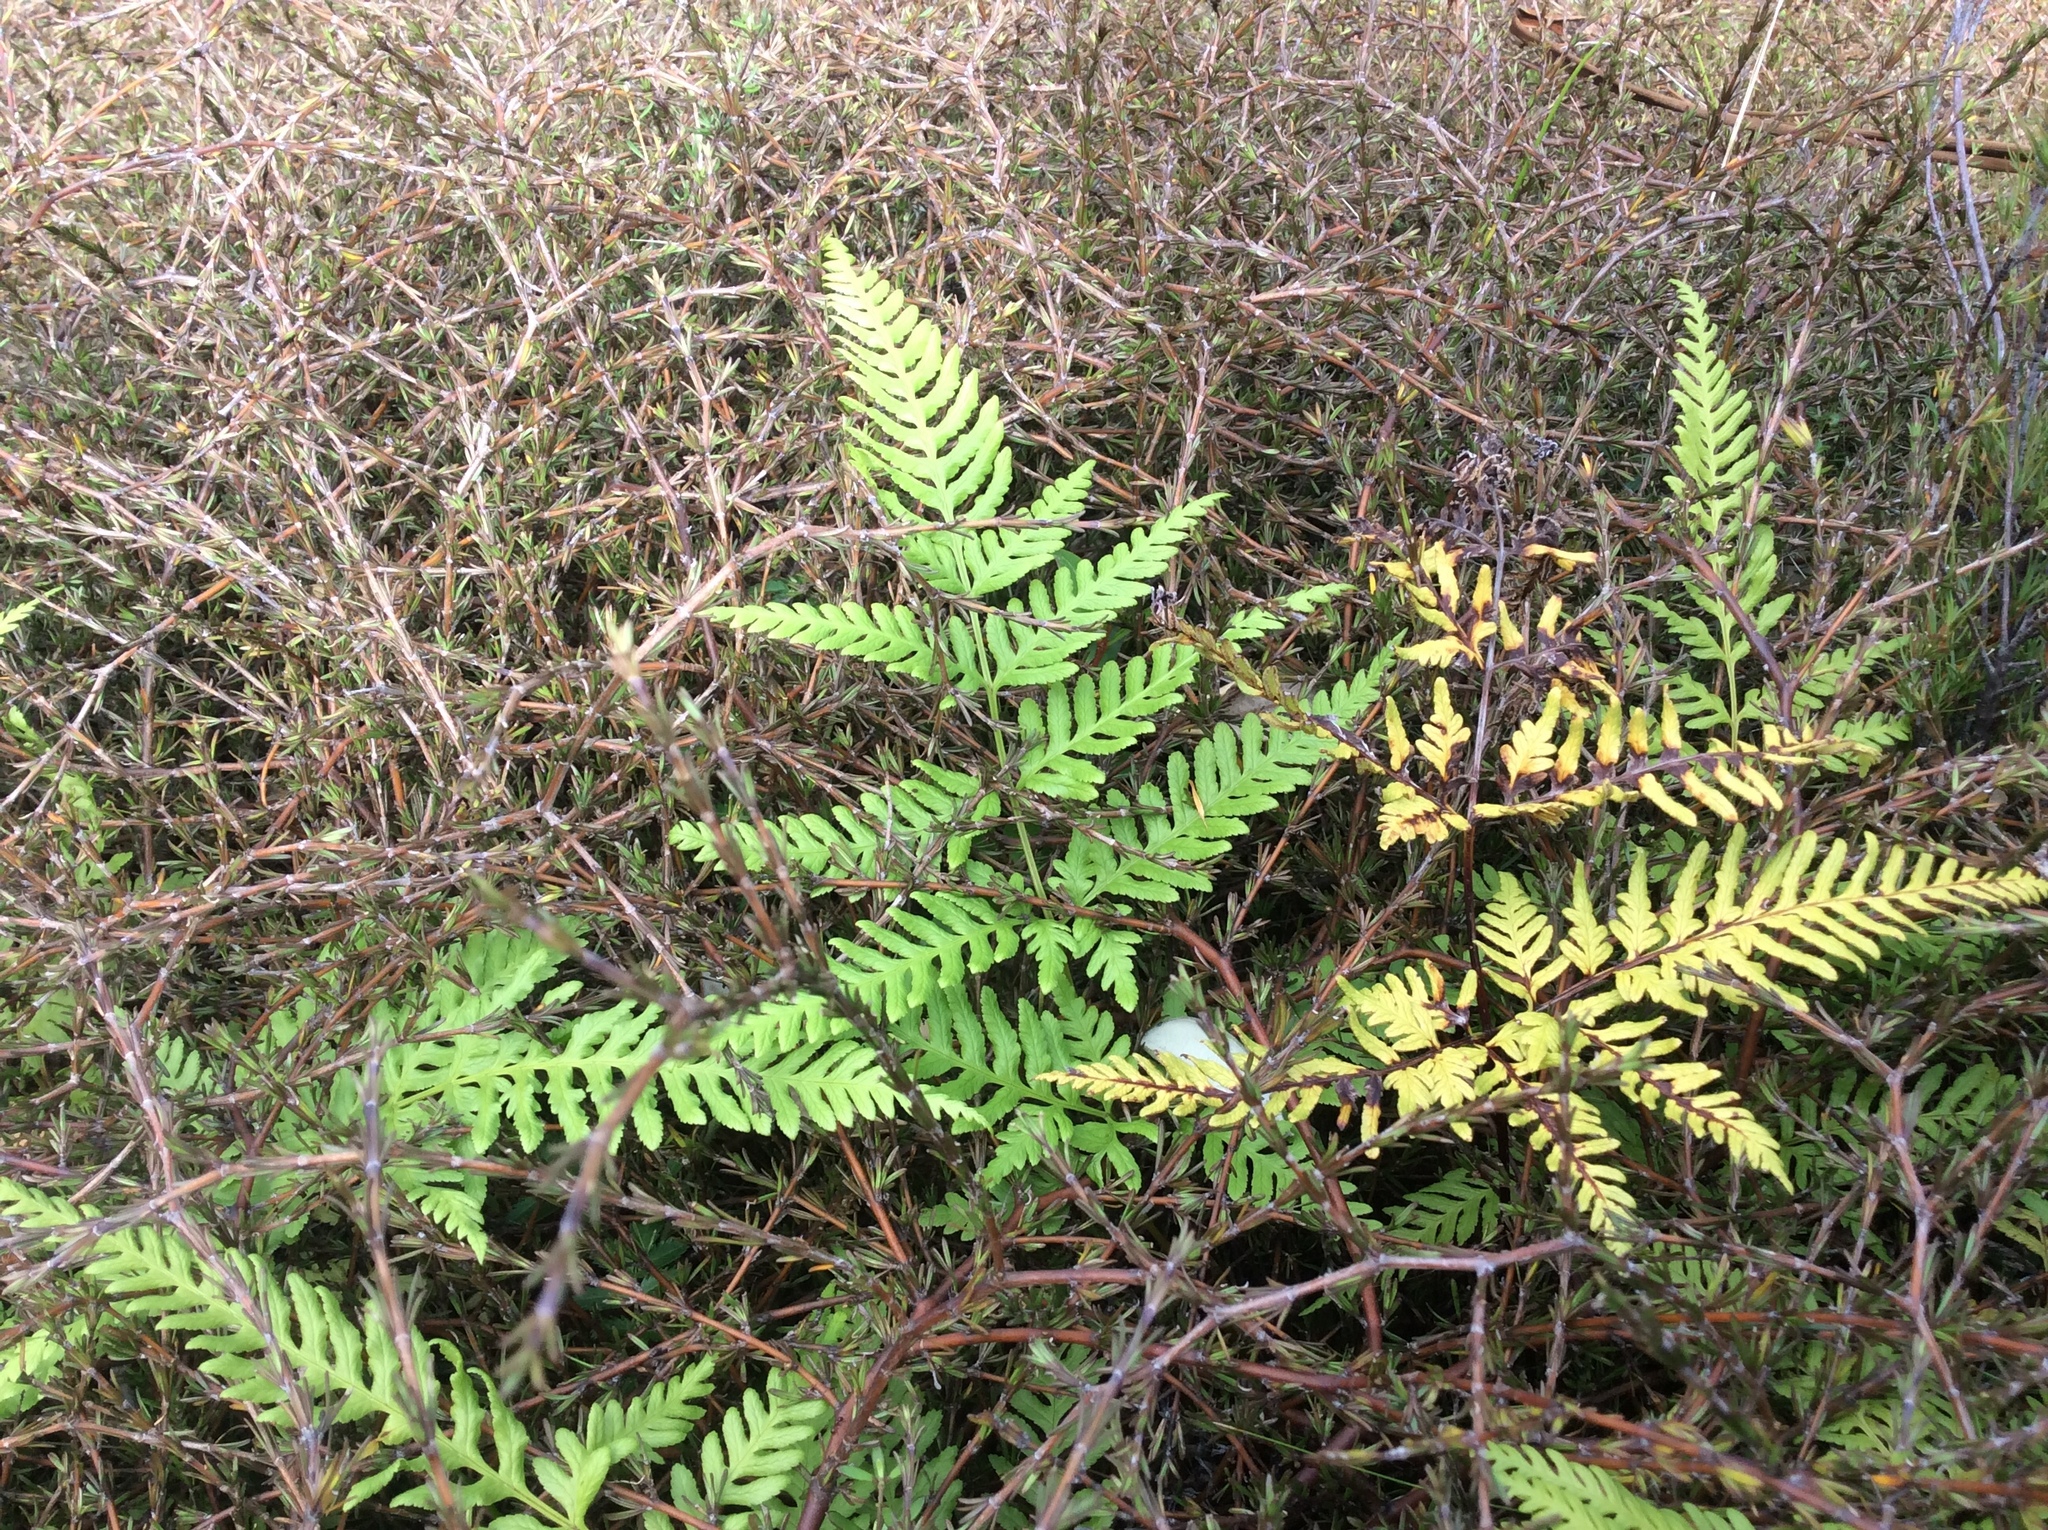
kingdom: Plantae
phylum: Tracheophyta
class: Polypodiopsida
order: Polypodiales
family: Pteridaceae
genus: Pteris
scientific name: Pteris tremula
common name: Australian brake
